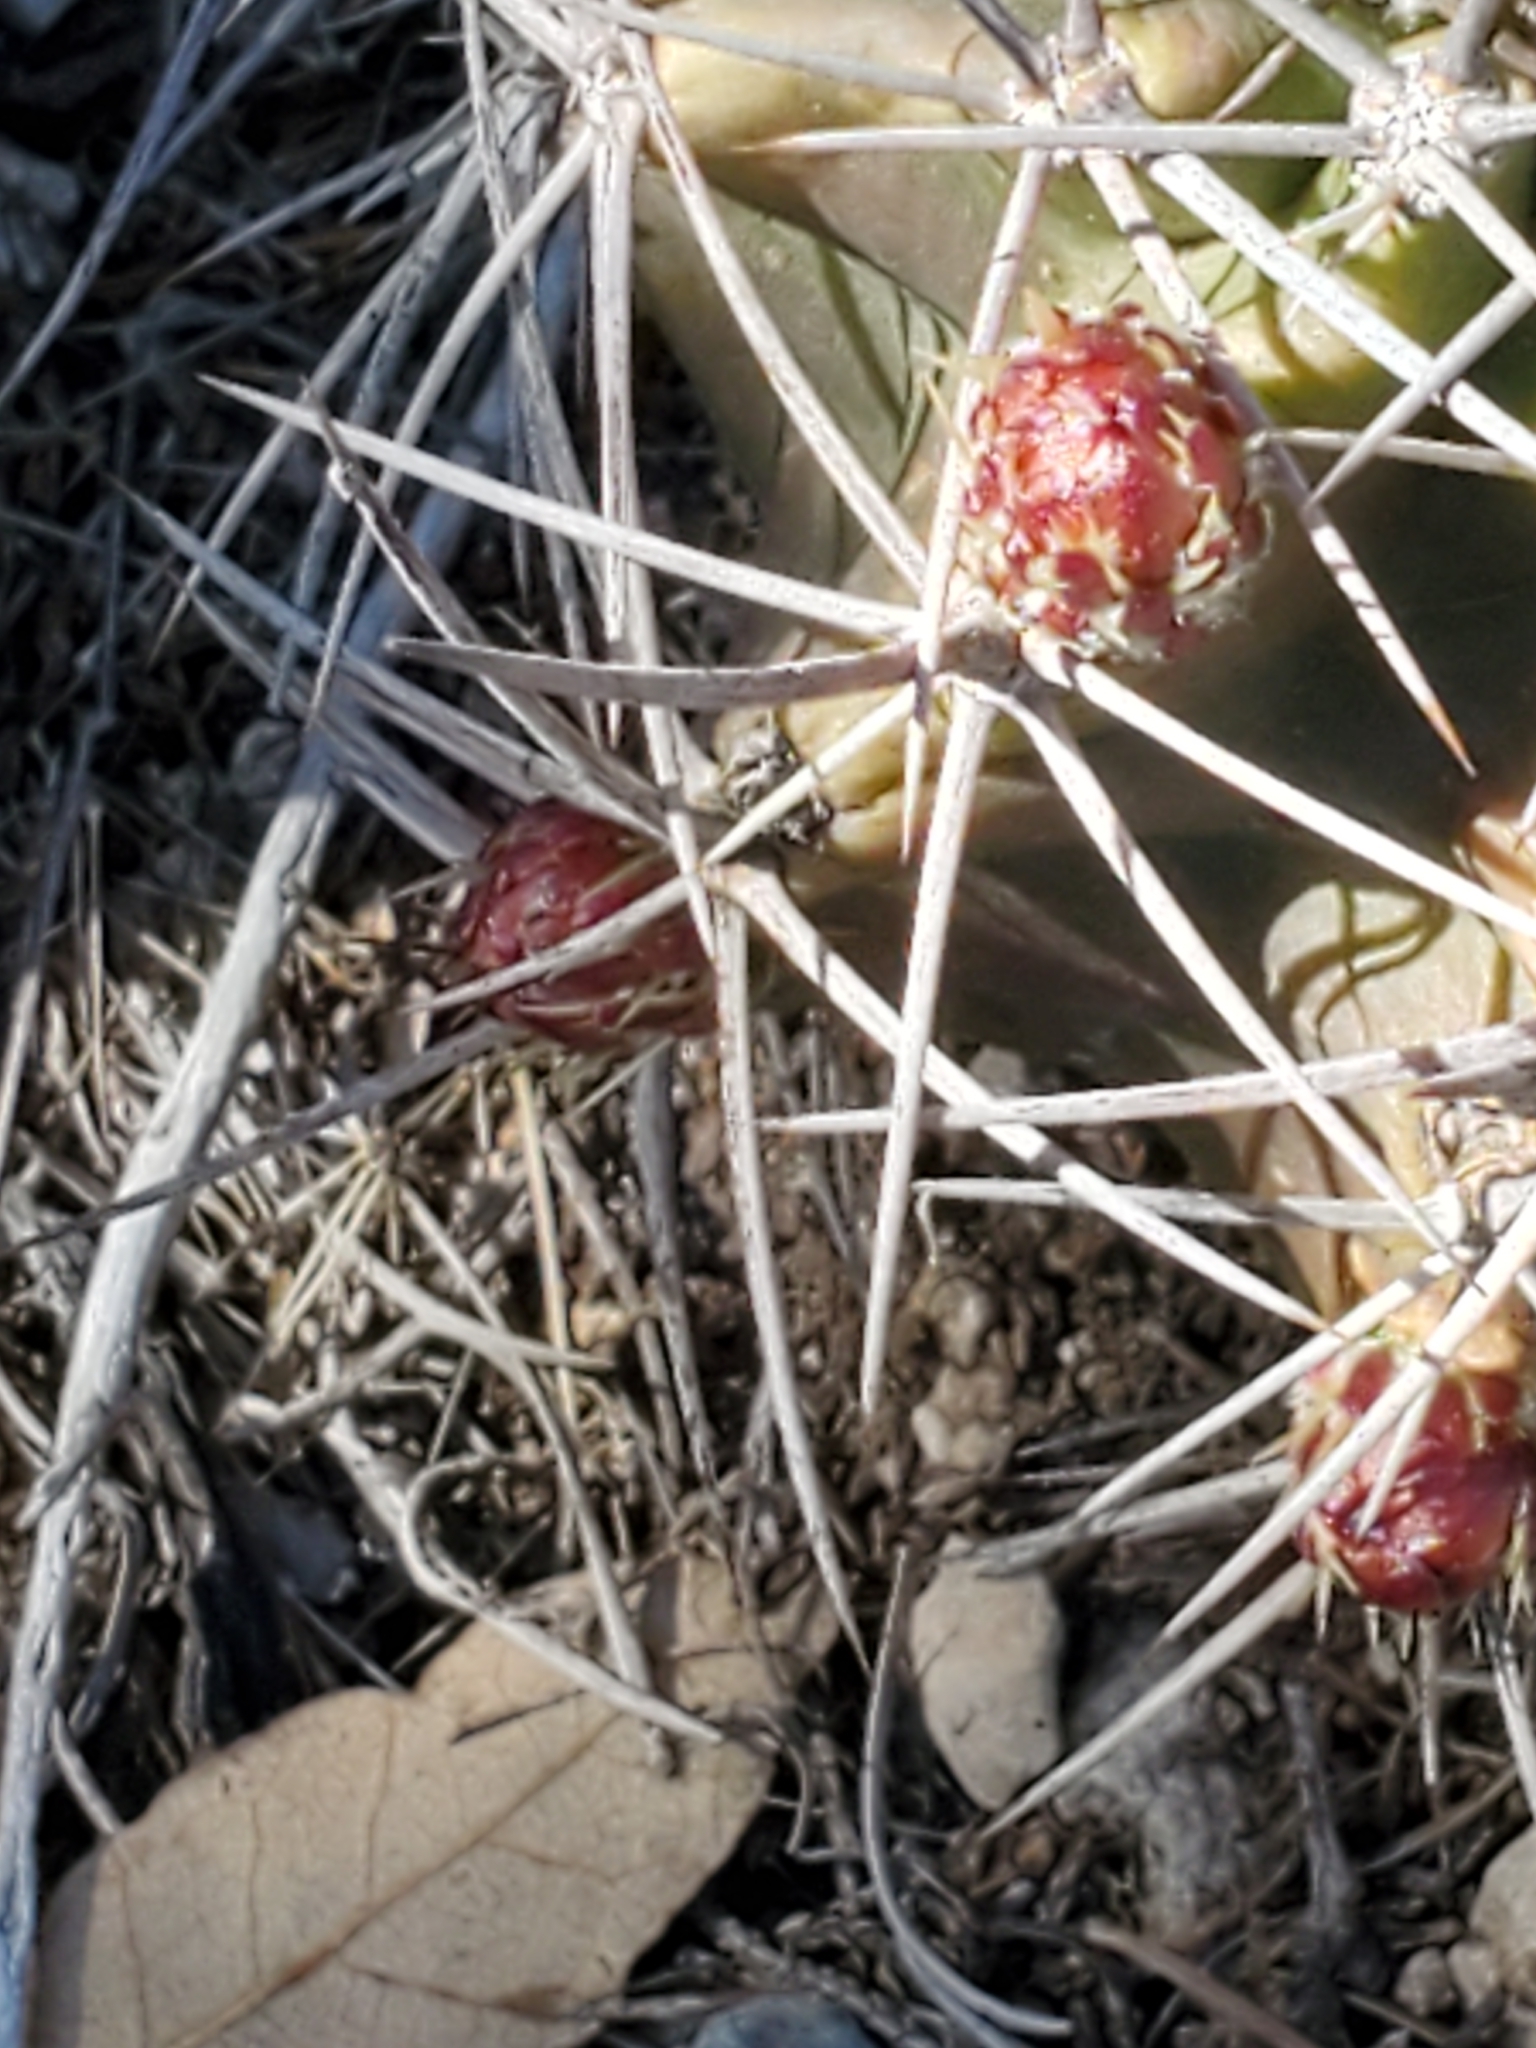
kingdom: Plantae
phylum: Tracheophyta
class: Magnoliopsida
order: Caryophyllales
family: Cactaceae
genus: Echinocereus
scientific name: Echinocereus coccineus
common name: Scarlet hedgehog cactus
